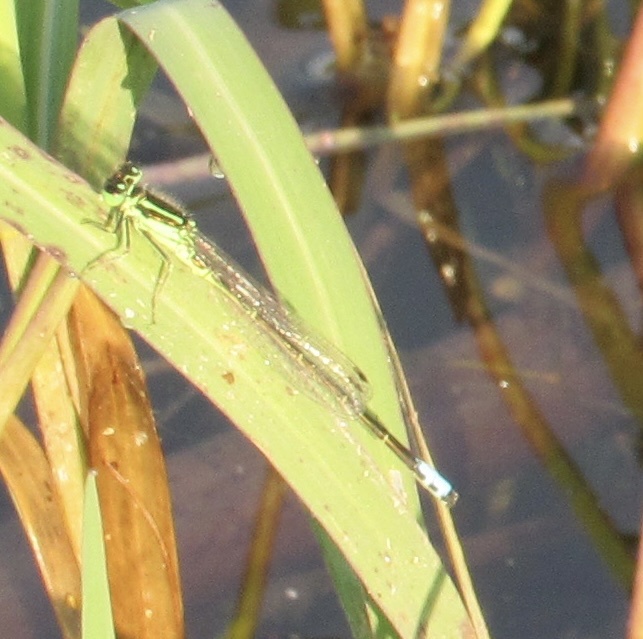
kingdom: Animalia
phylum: Arthropoda
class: Insecta
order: Odonata
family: Coenagrionidae
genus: Ischnura
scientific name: Ischnura verticalis
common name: Eastern forktail
